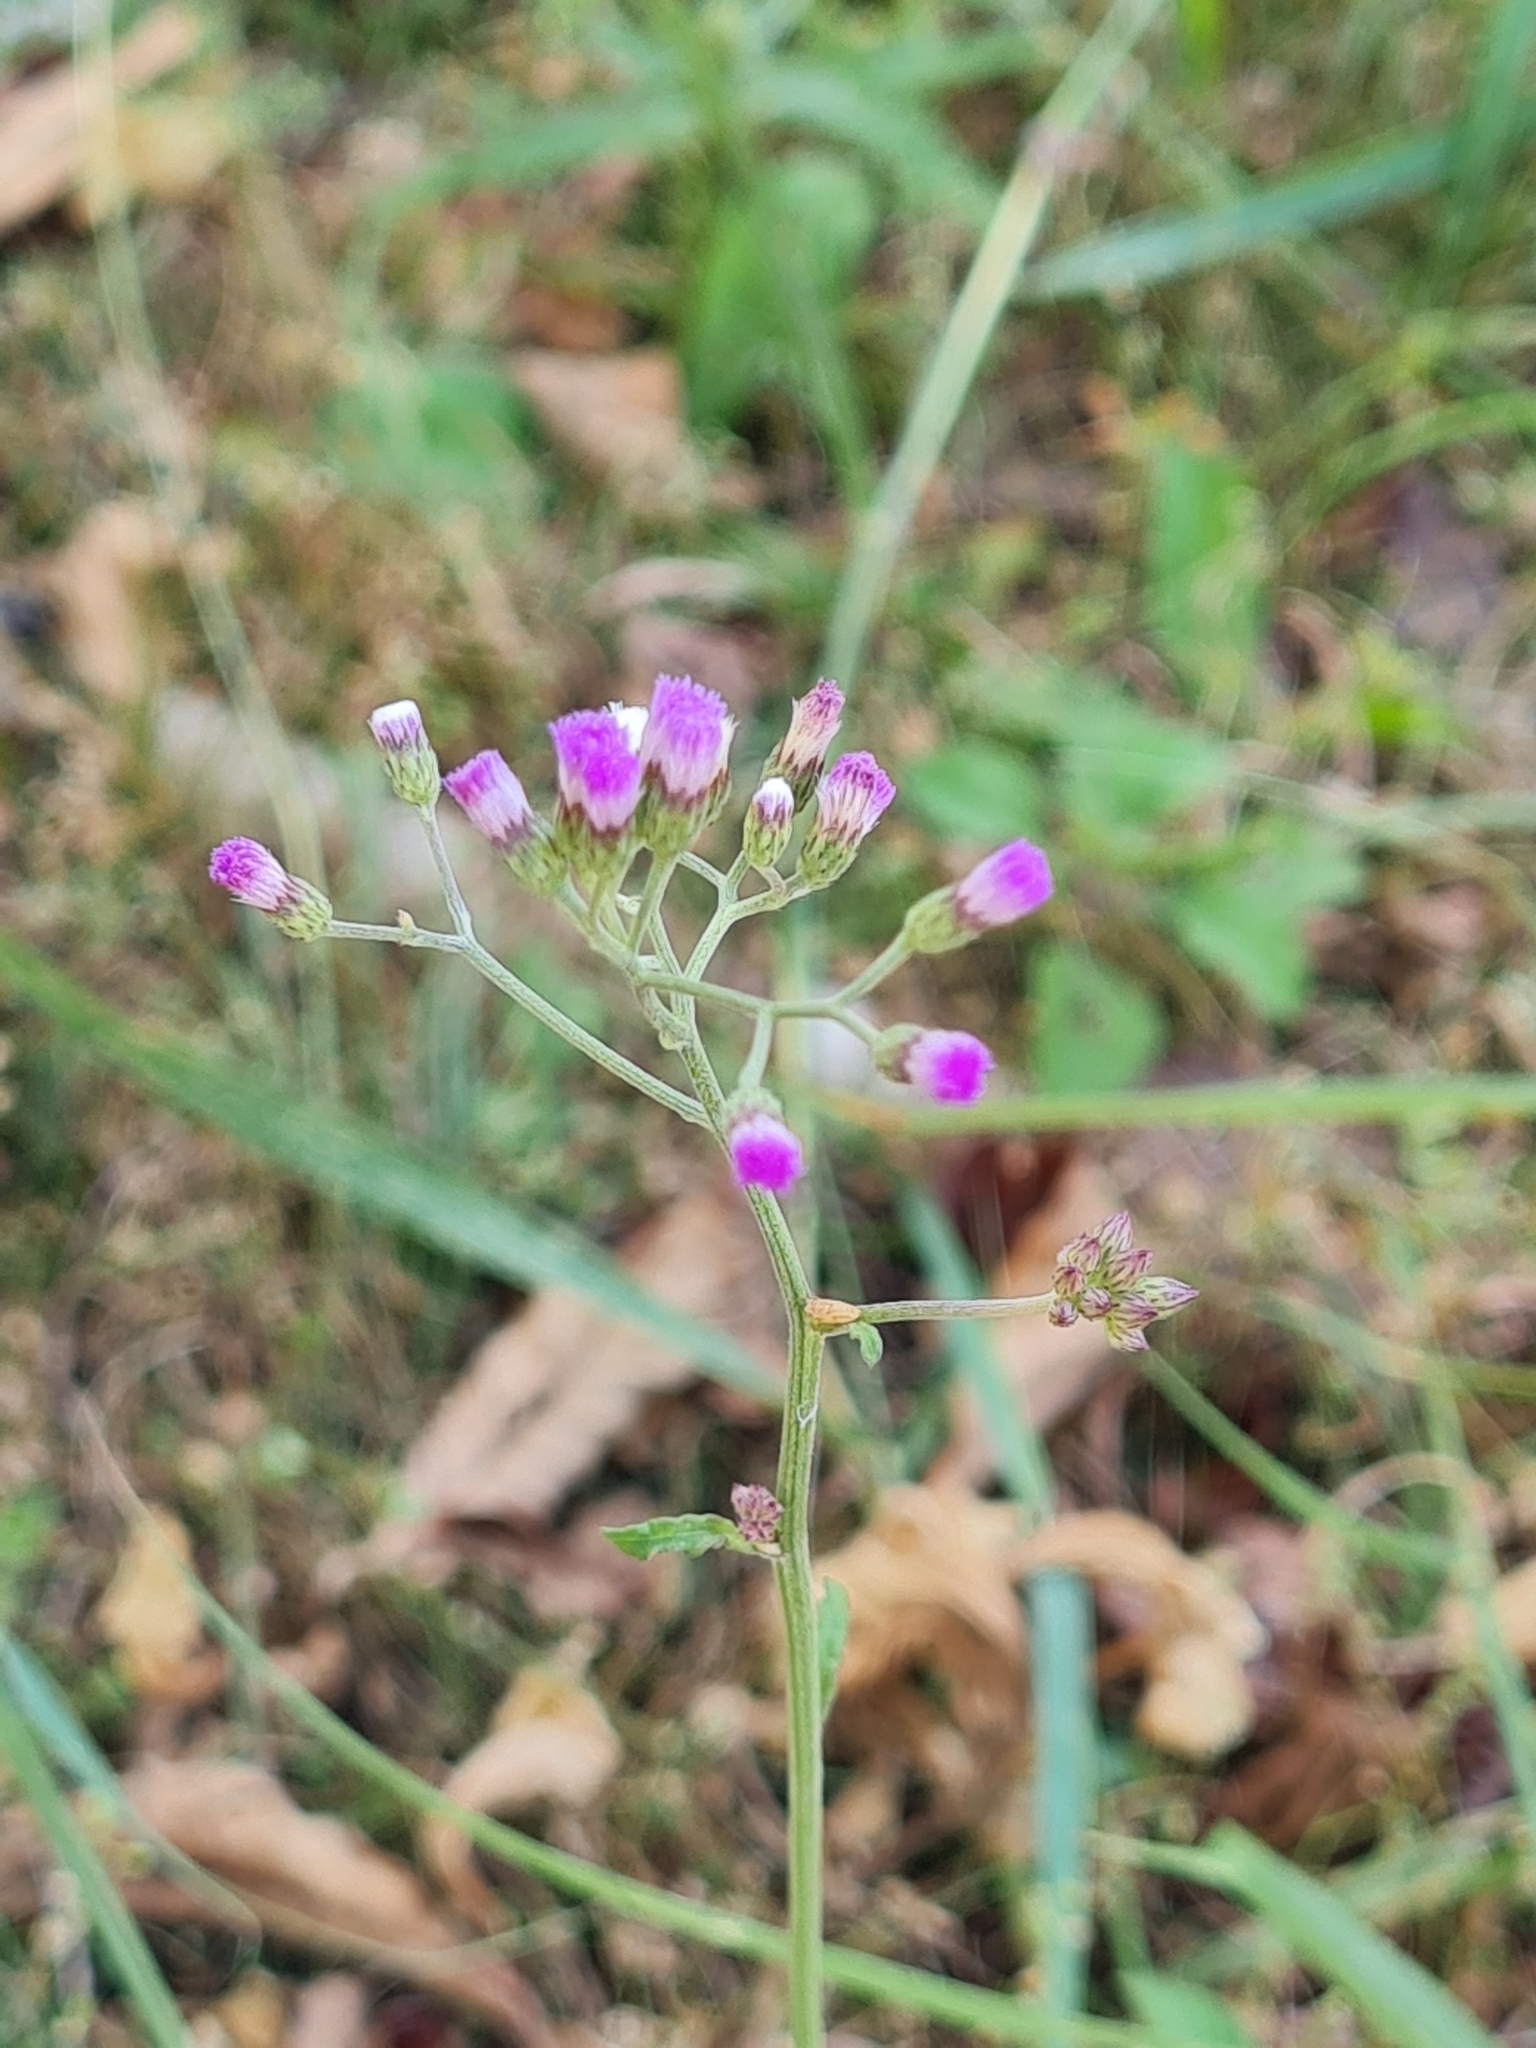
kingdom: Plantae
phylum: Tracheophyta
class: Magnoliopsida
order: Asterales
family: Asteraceae
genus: Cyanthillium
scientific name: Cyanthillium cinereum
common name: Little ironweed
